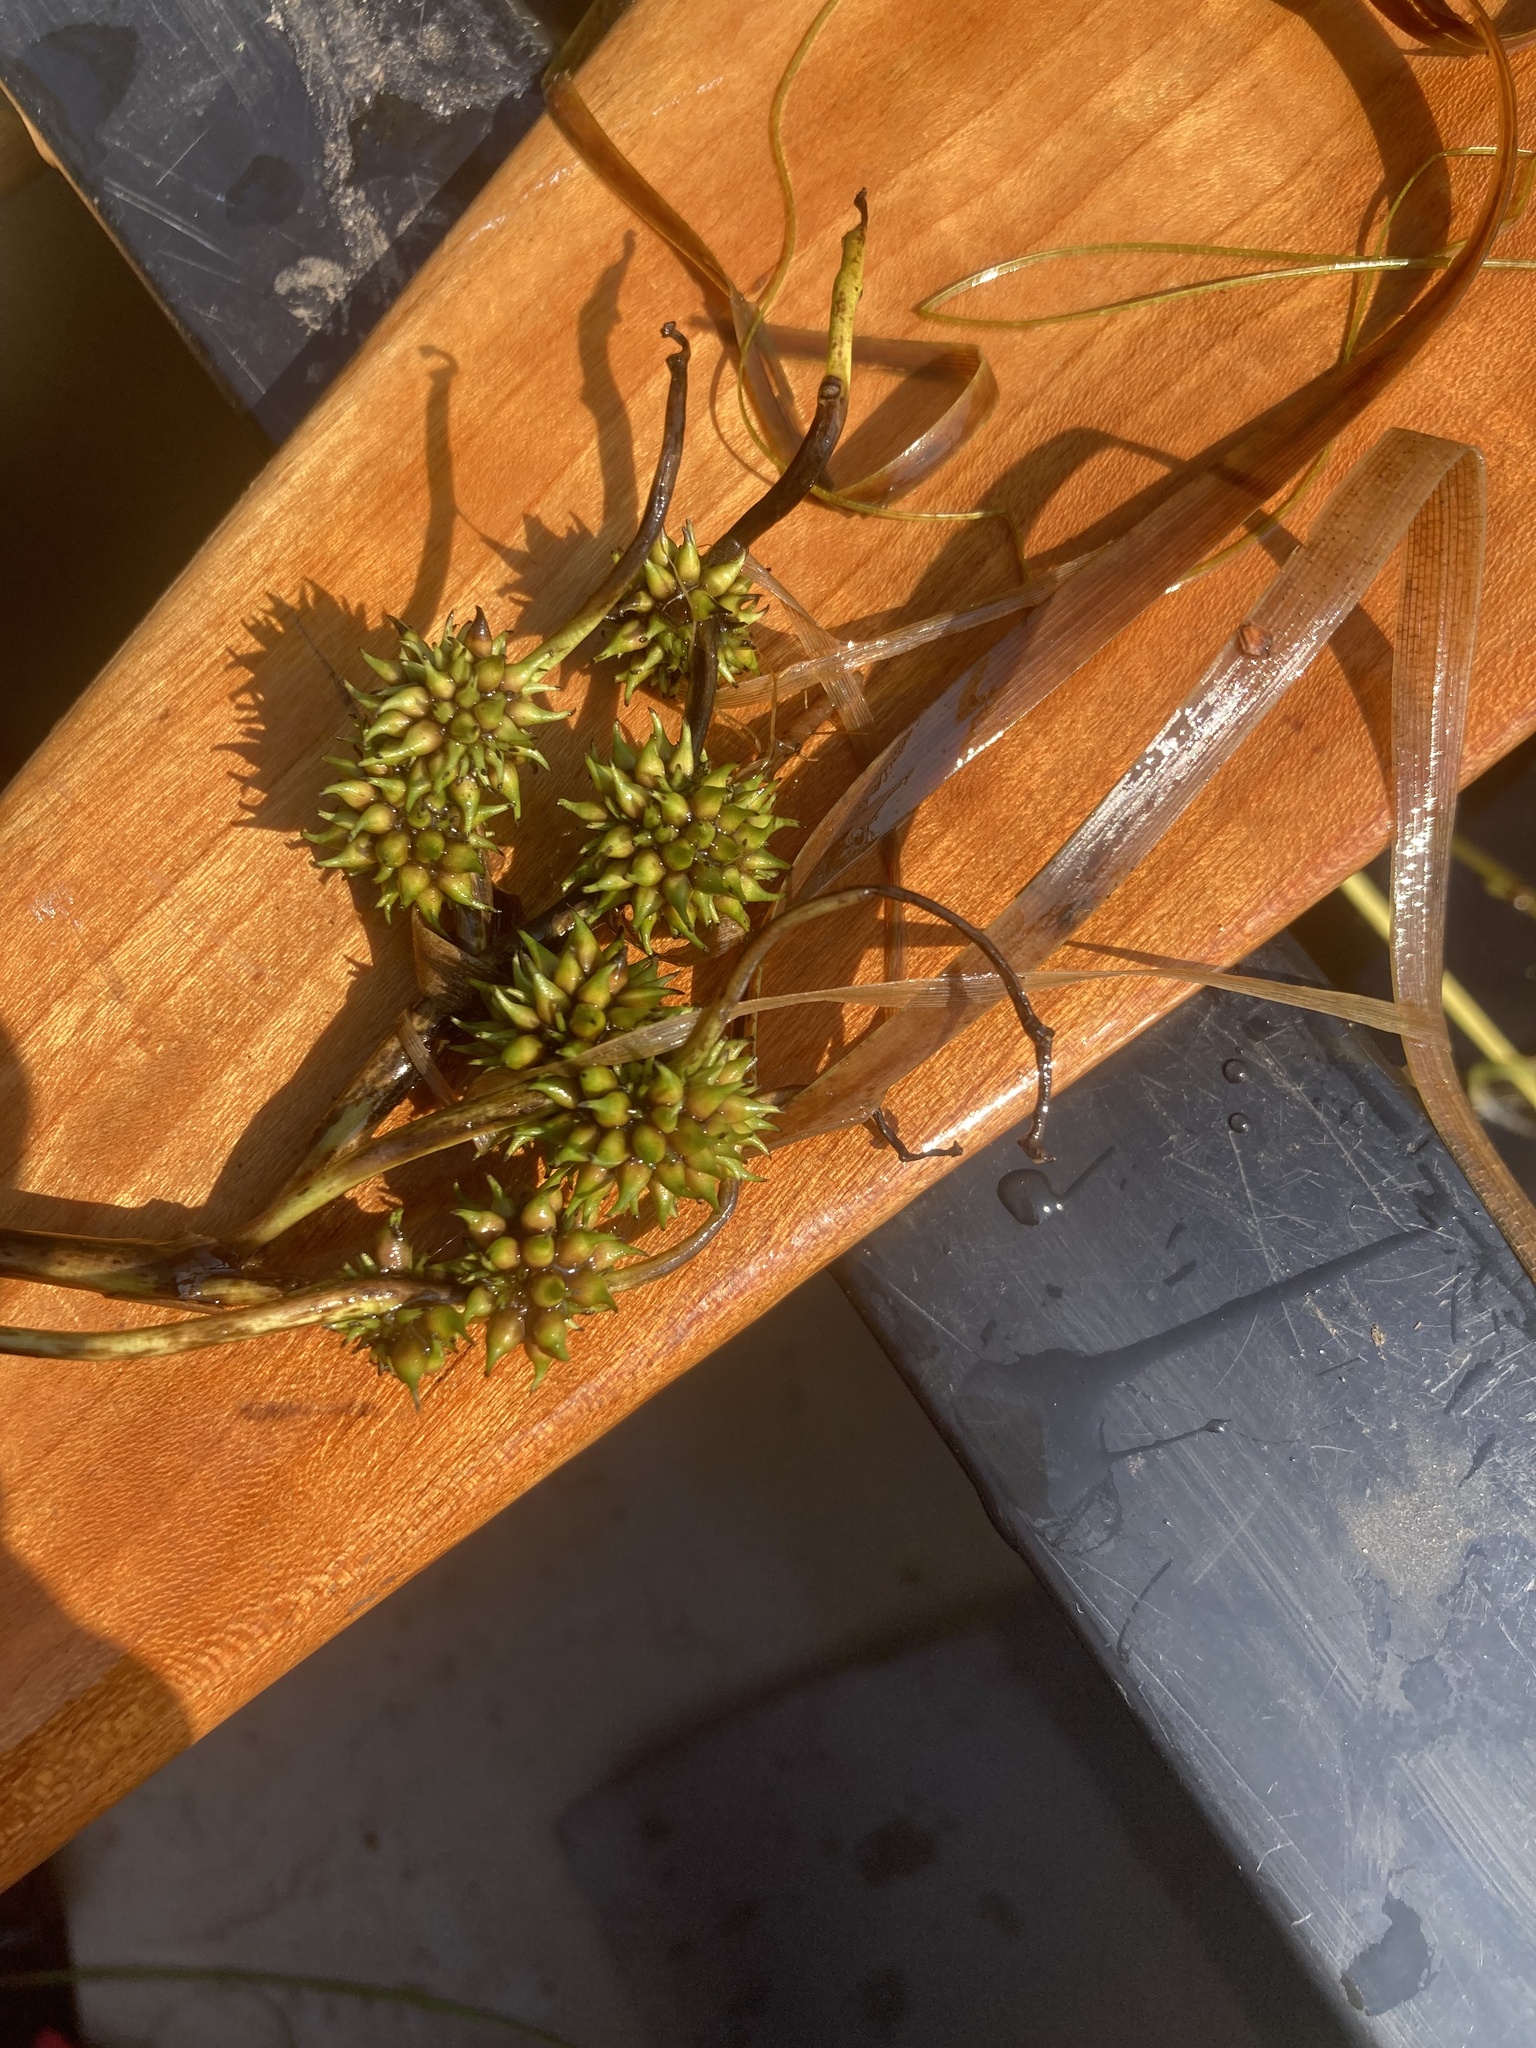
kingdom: Plantae
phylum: Tracheophyta
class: Liliopsida
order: Poales
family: Typhaceae
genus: Sparganium
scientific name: Sparganium fluctuans
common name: Floating burreed
